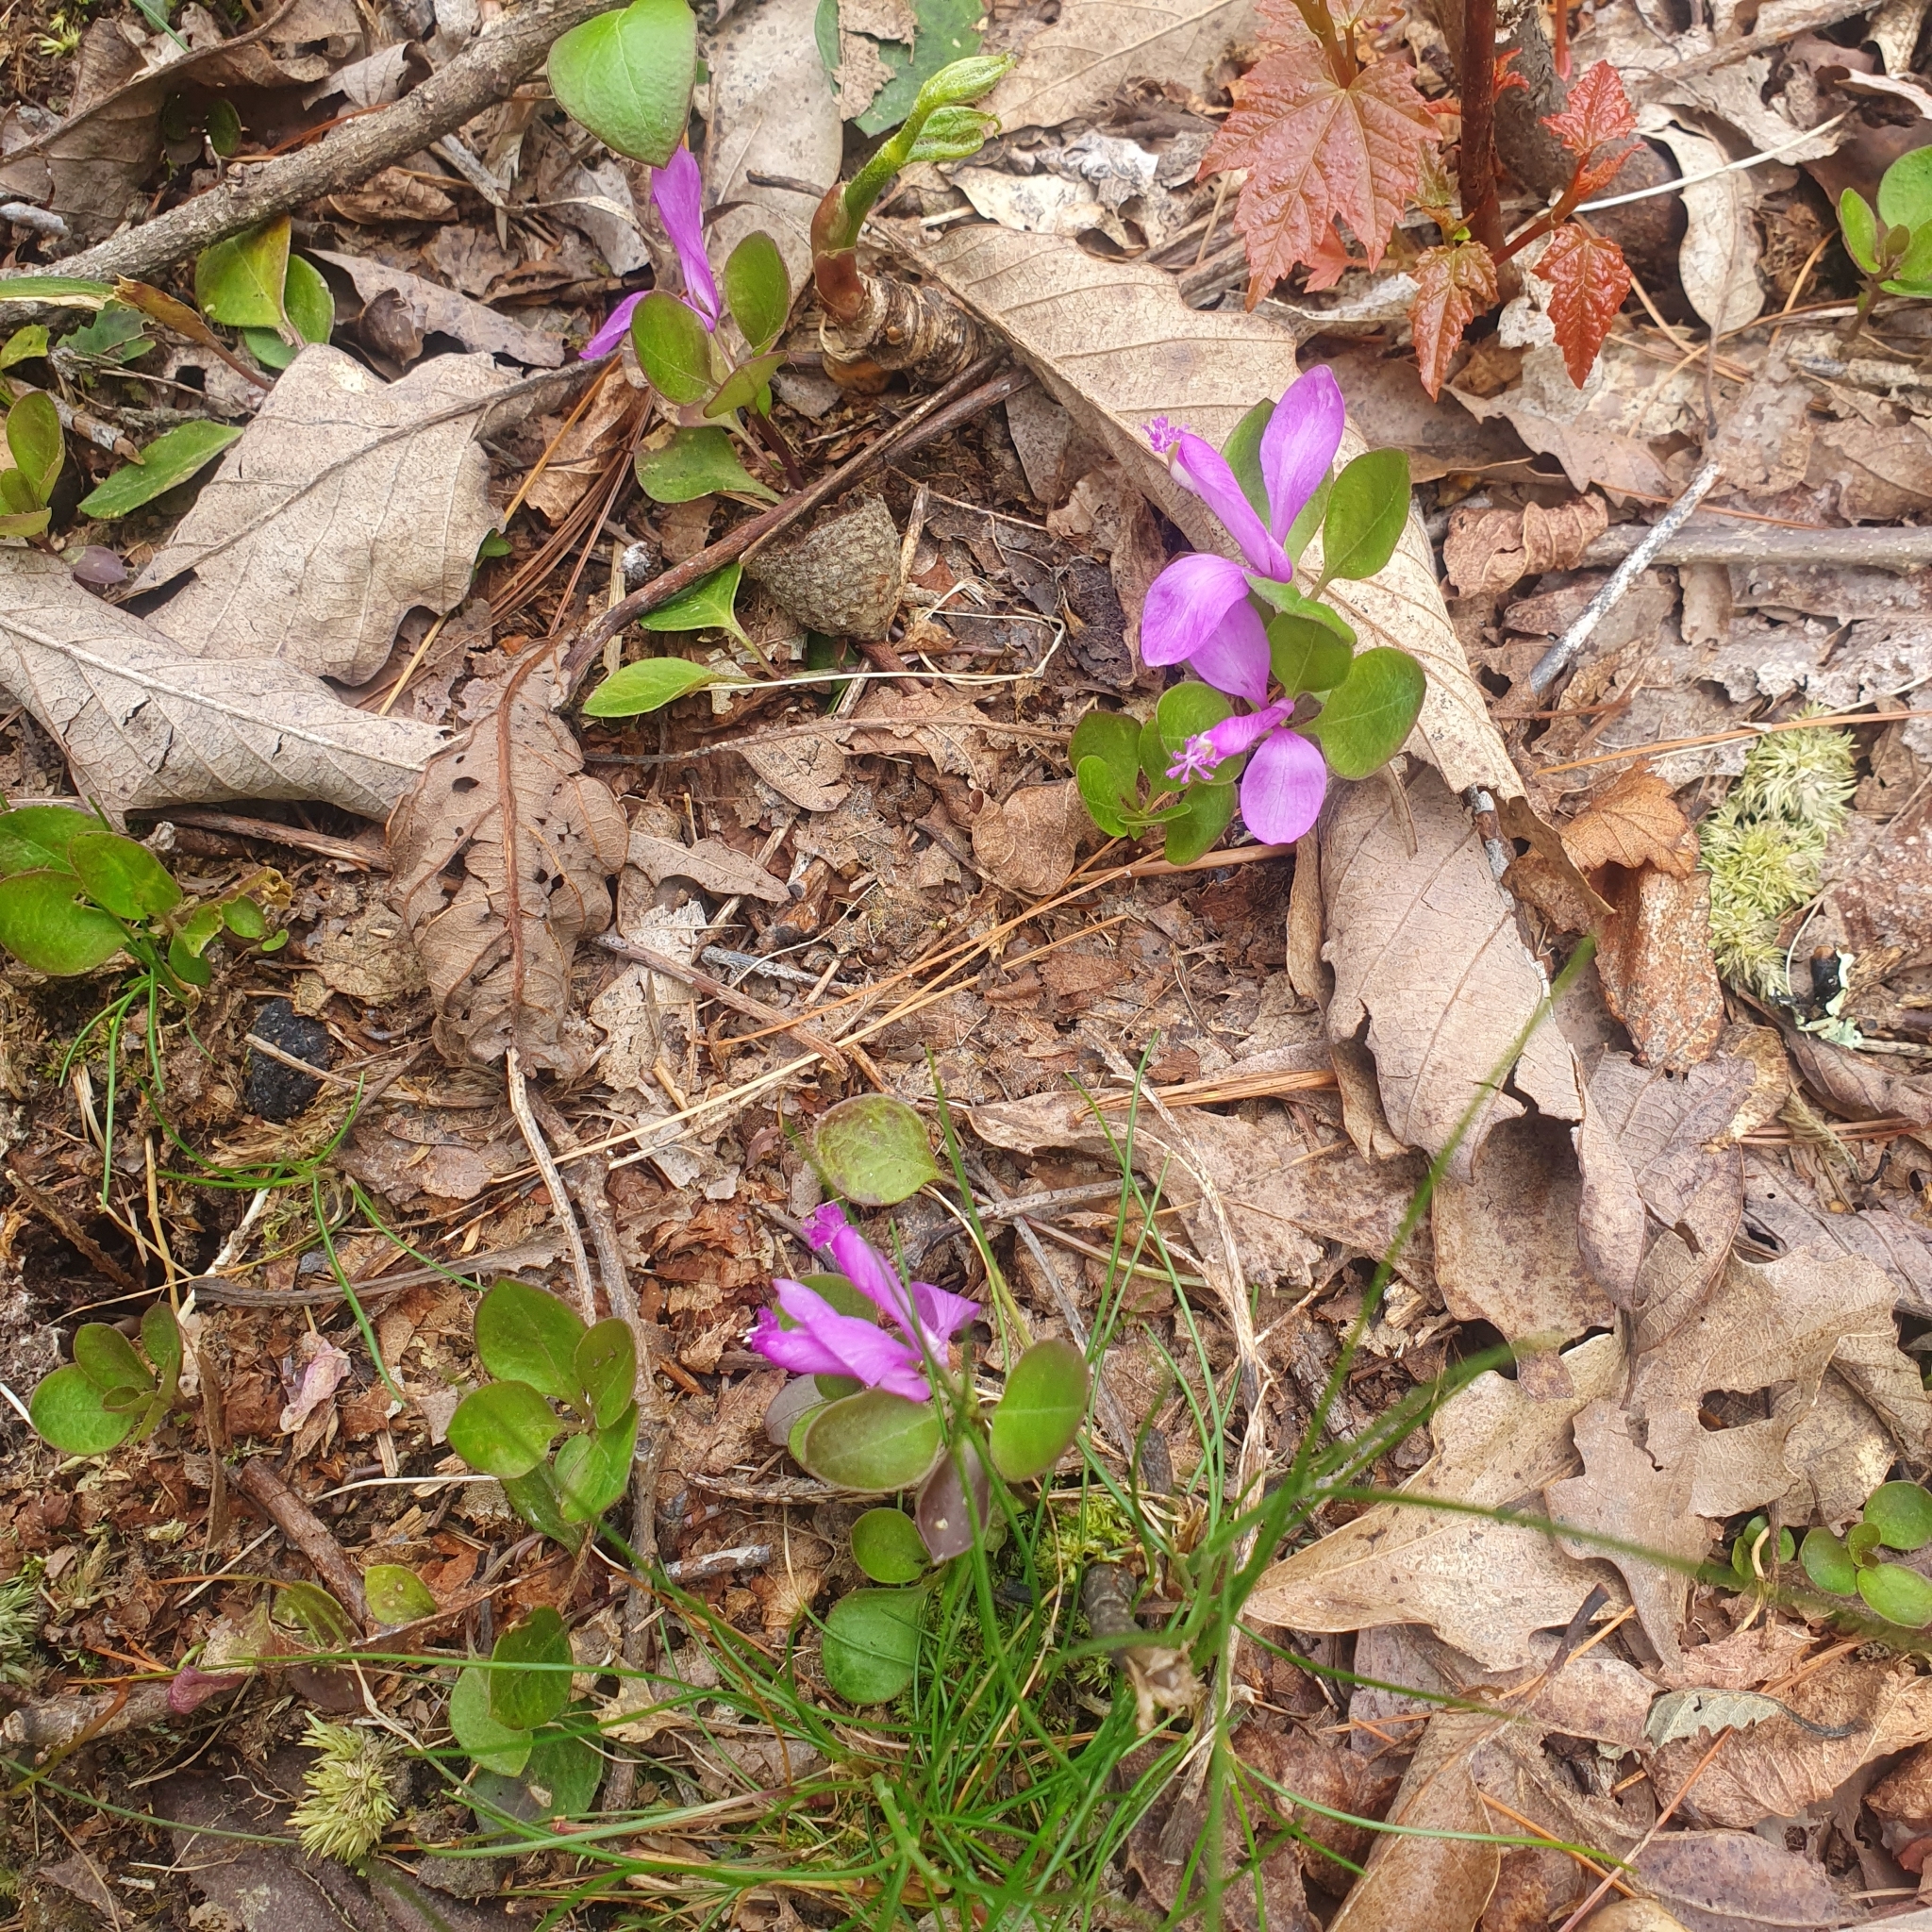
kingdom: Plantae
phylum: Tracheophyta
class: Magnoliopsida
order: Fabales
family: Polygalaceae
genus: Polygaloides
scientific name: Polygaloides paucifolia
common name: Bird-on-the-wing
